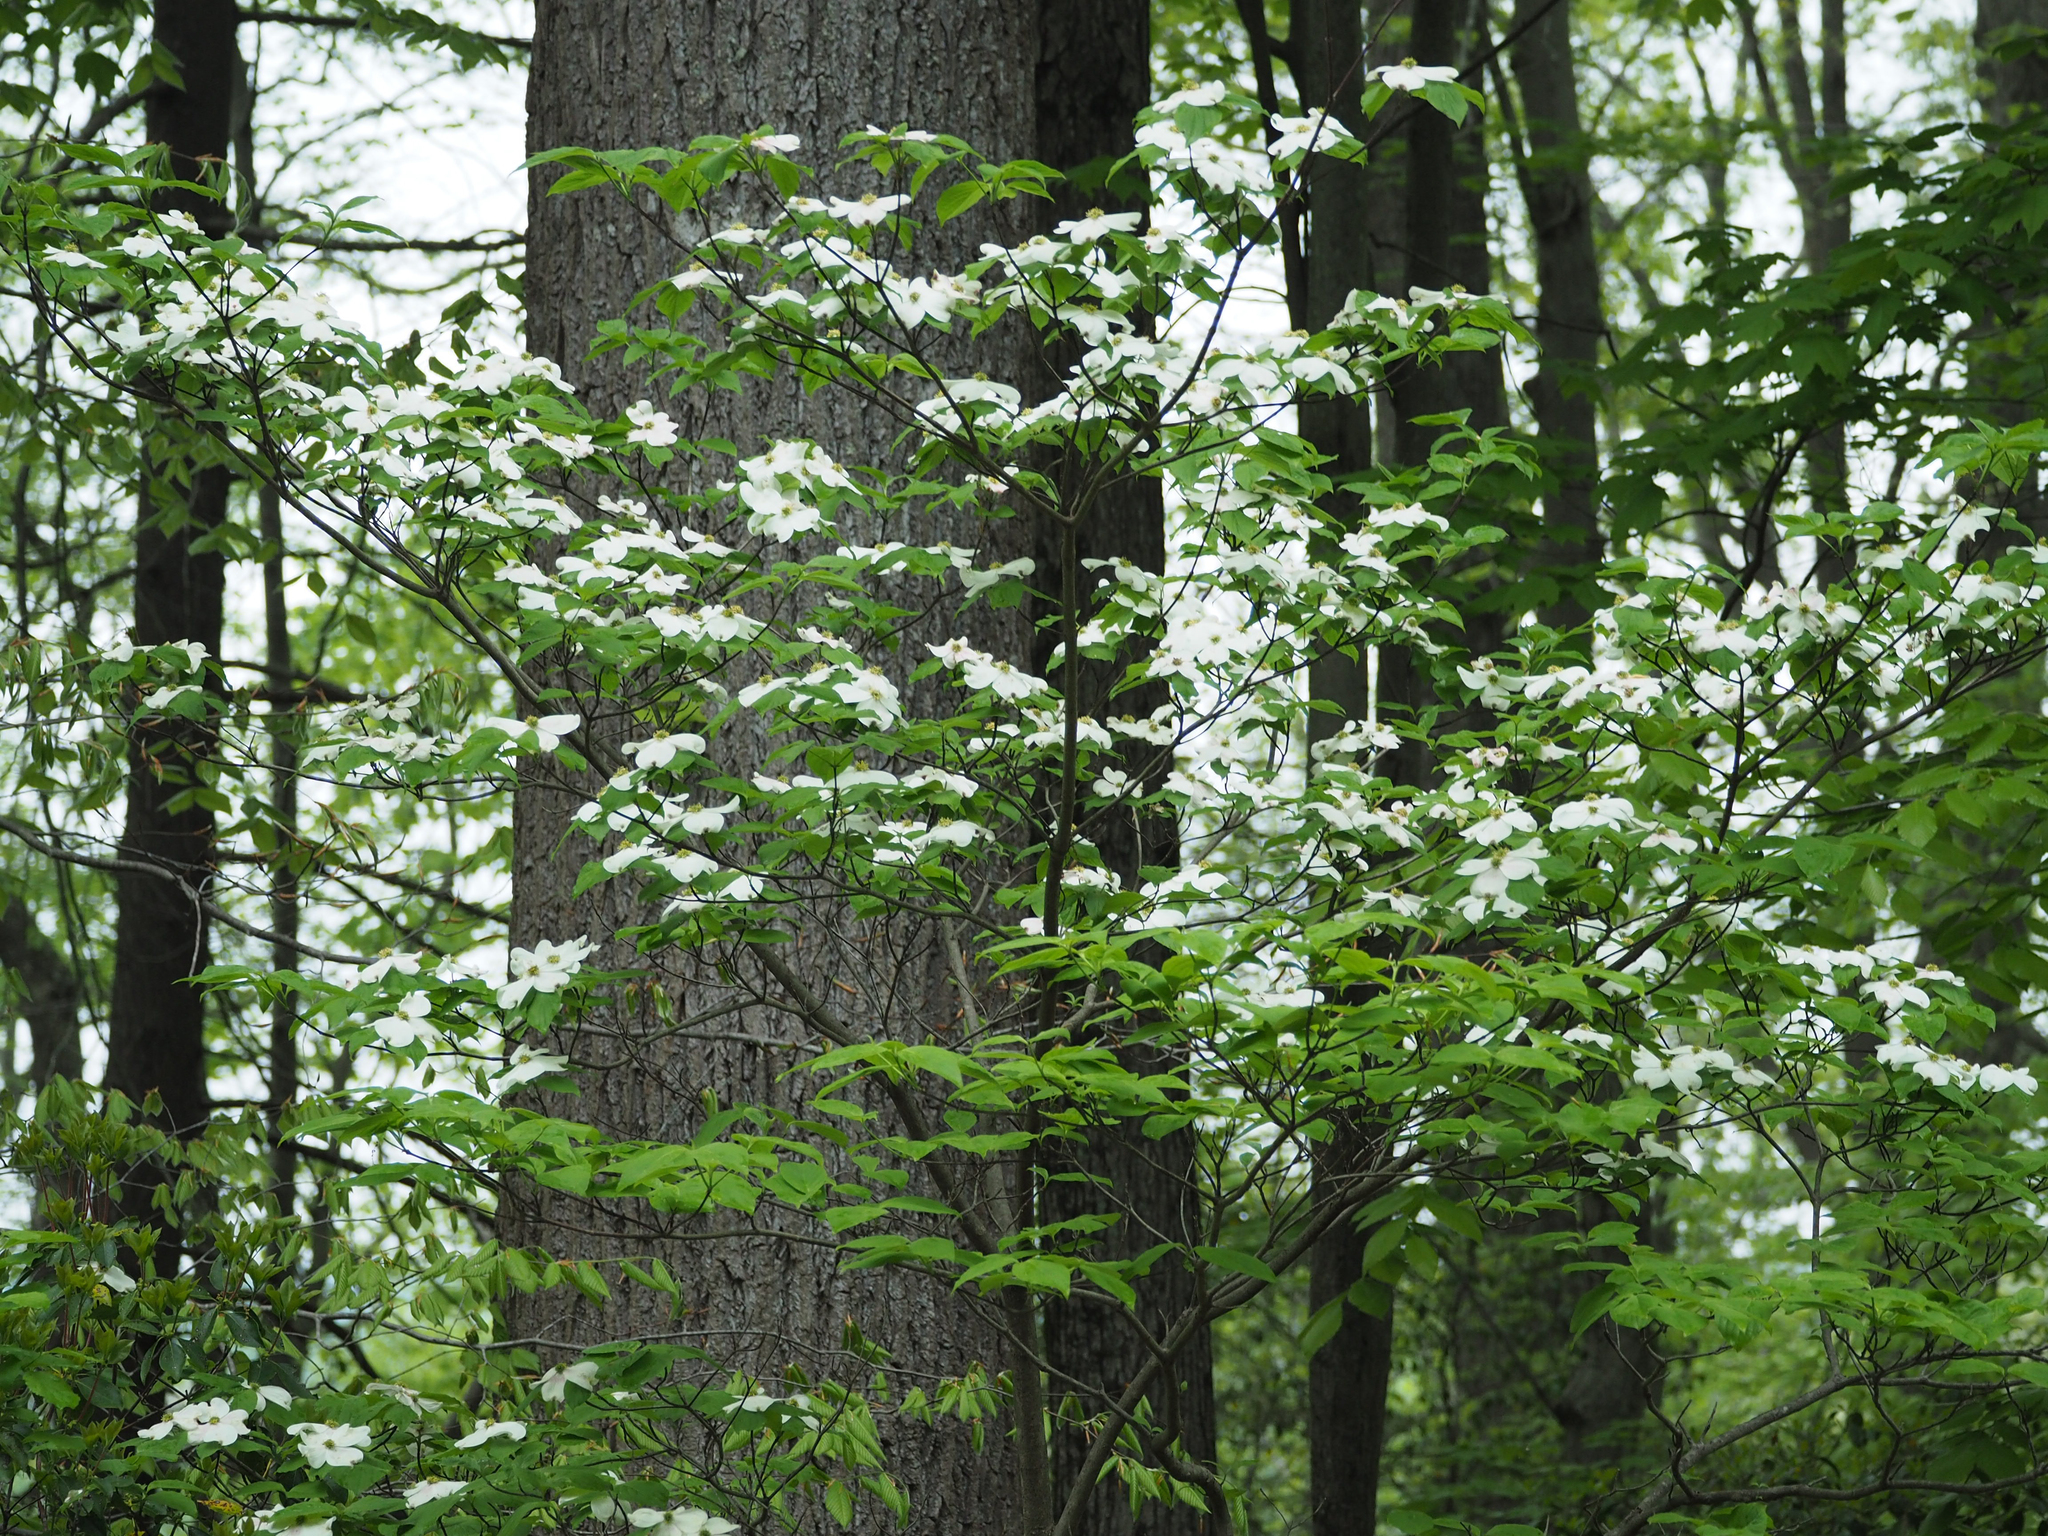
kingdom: Plantae
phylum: Tracheophyta
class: Magnoliopsida
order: Cornales
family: Cornaceae
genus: Cornus
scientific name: Cornus florida
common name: Flowering dogwood
